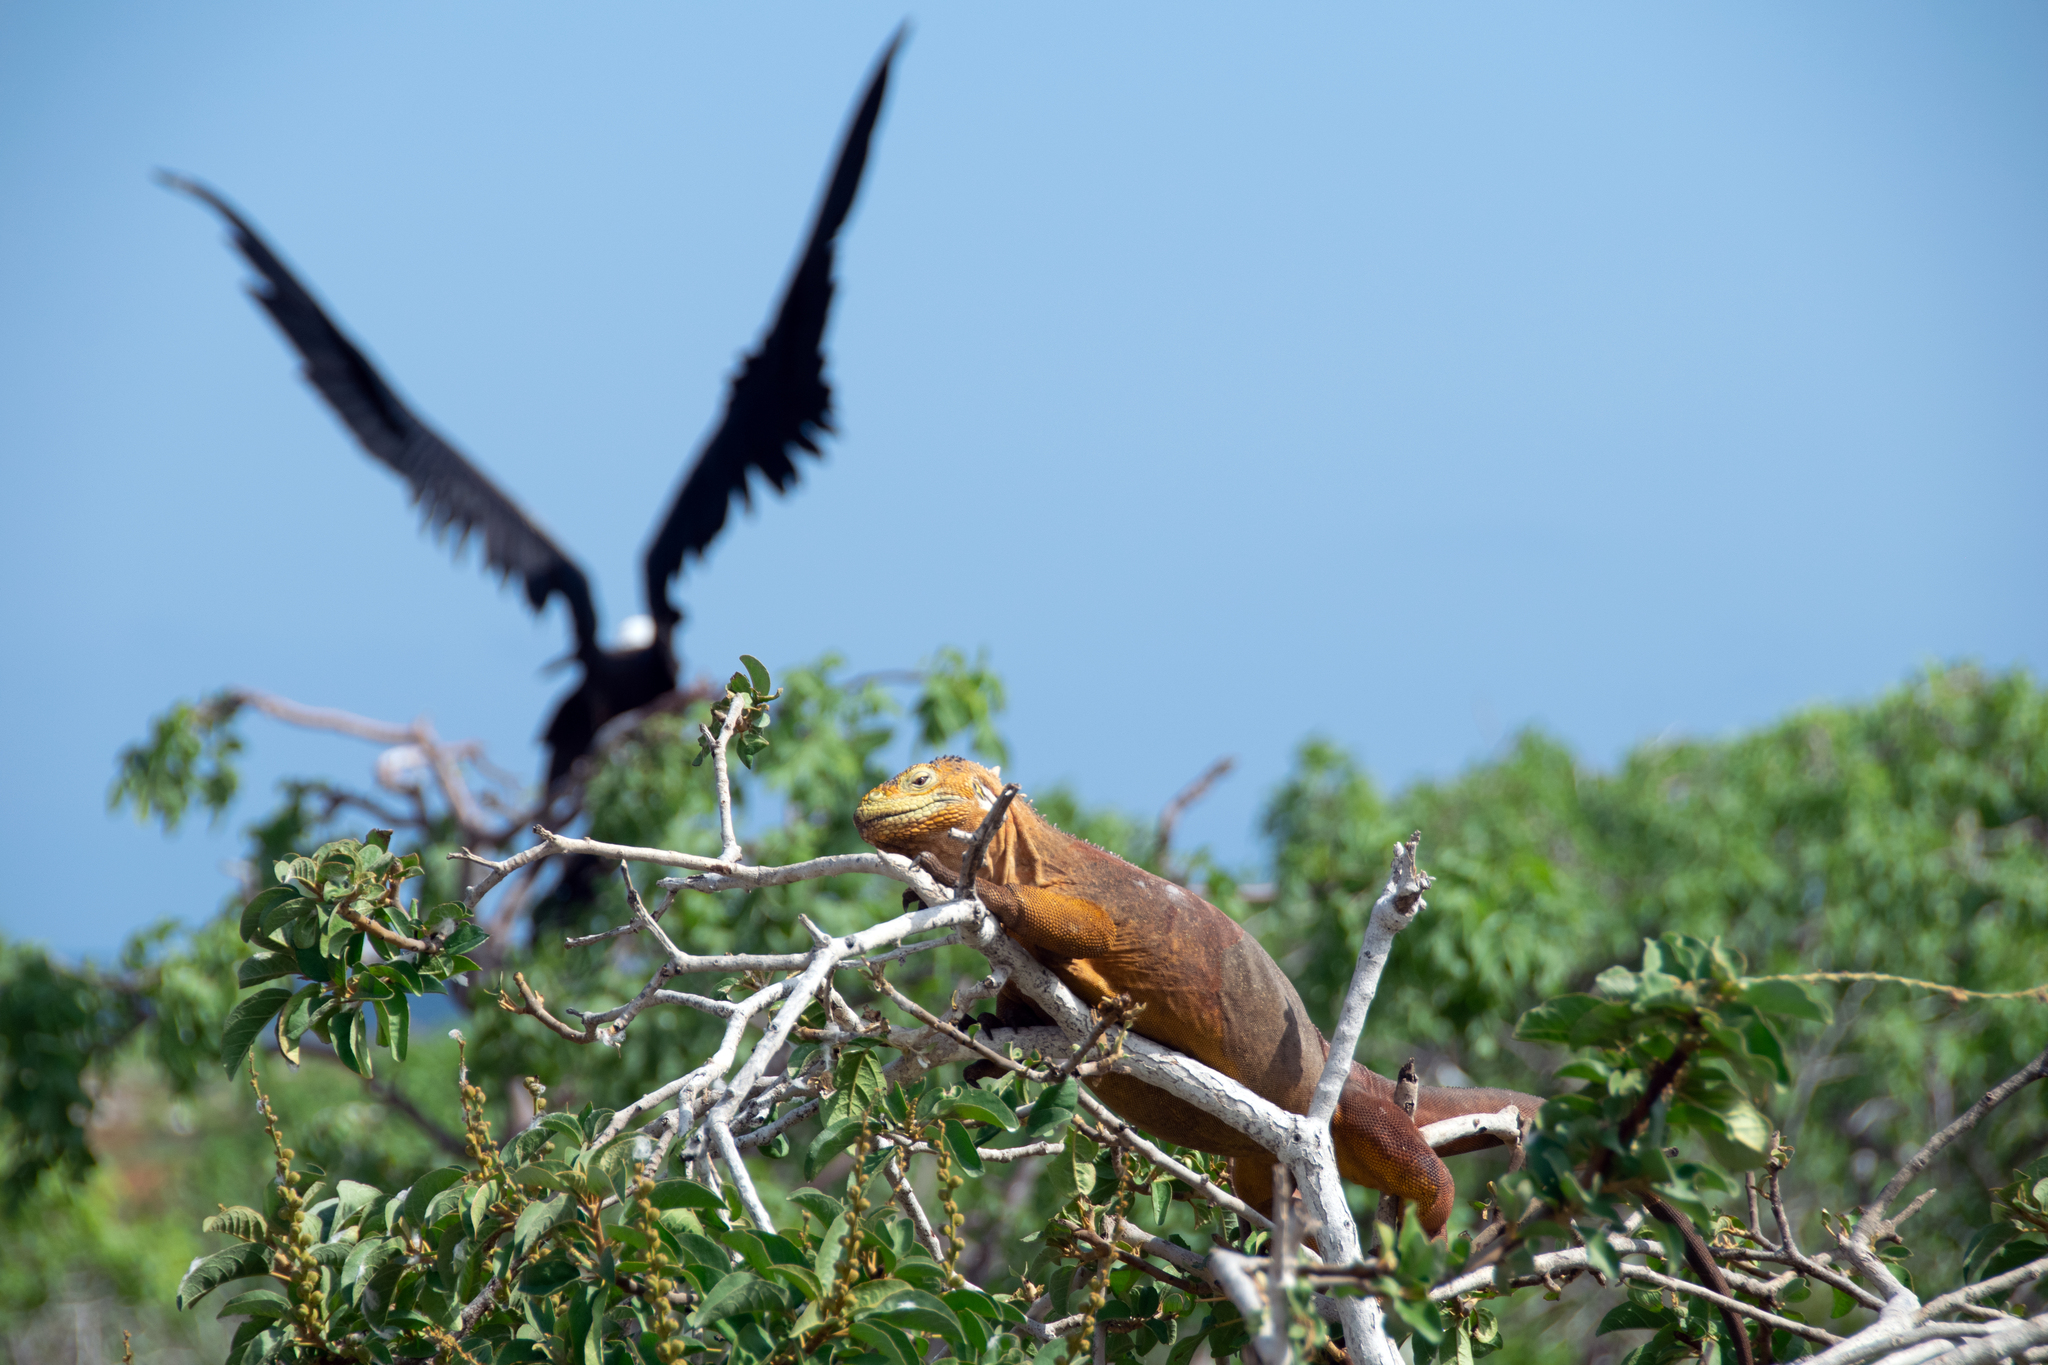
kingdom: Animalia
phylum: Chordata
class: Squamata
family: Iguanidae
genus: Conolophus
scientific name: Conolophus subcristatus
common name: Galapagos land iguana
